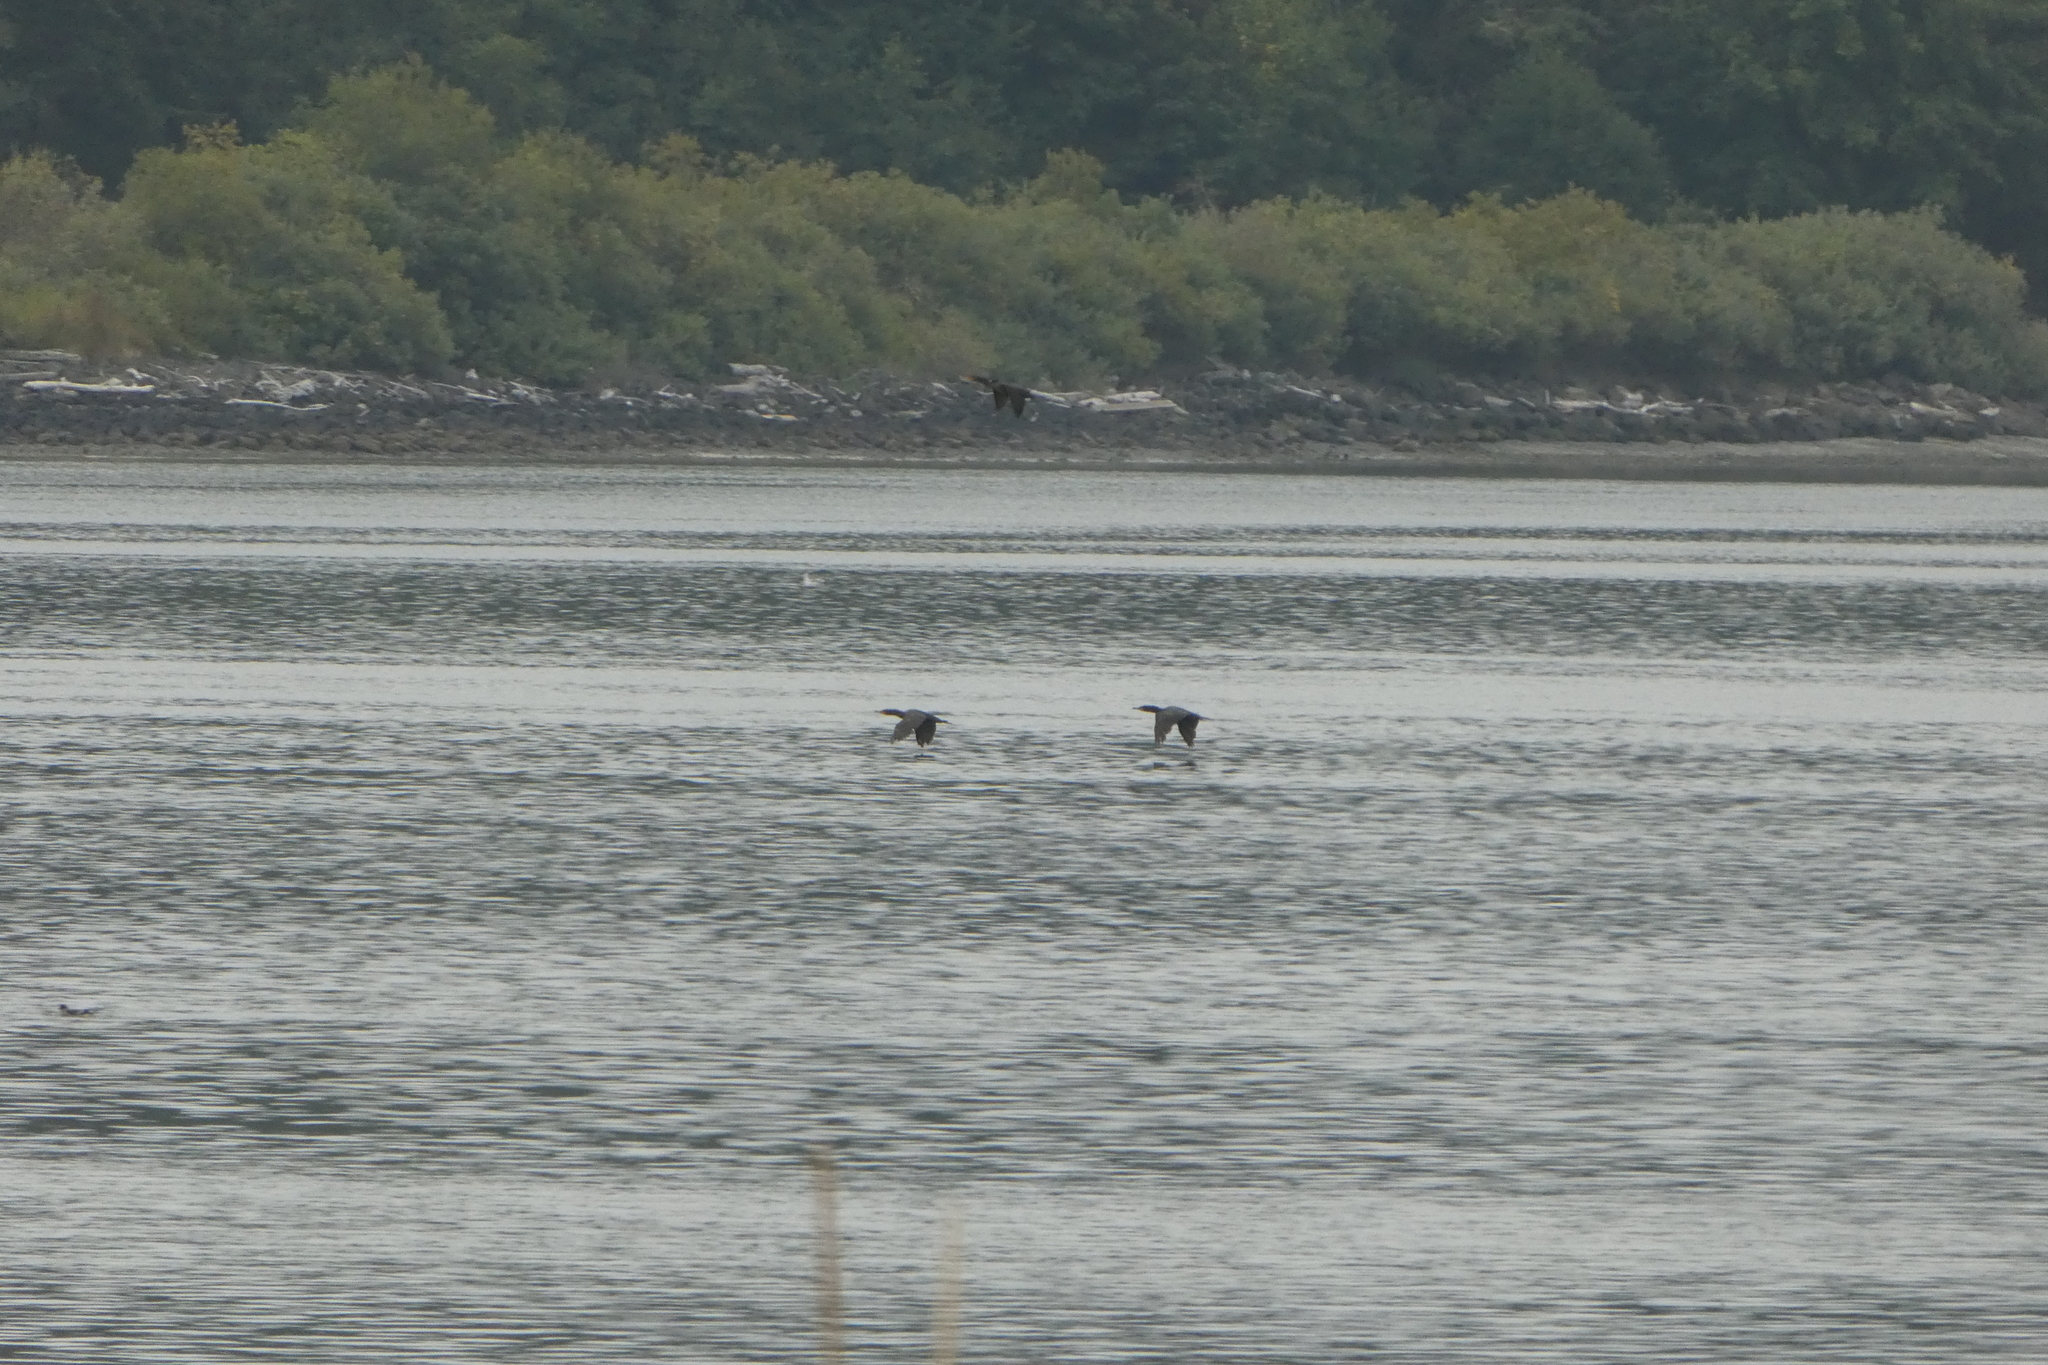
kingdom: Animalia
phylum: Chordata
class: Aves
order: Suliformes
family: Phalacrocoracidae
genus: Phalacrocorax
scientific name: Phalacrocorax auritus
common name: Double-crested cormorant
